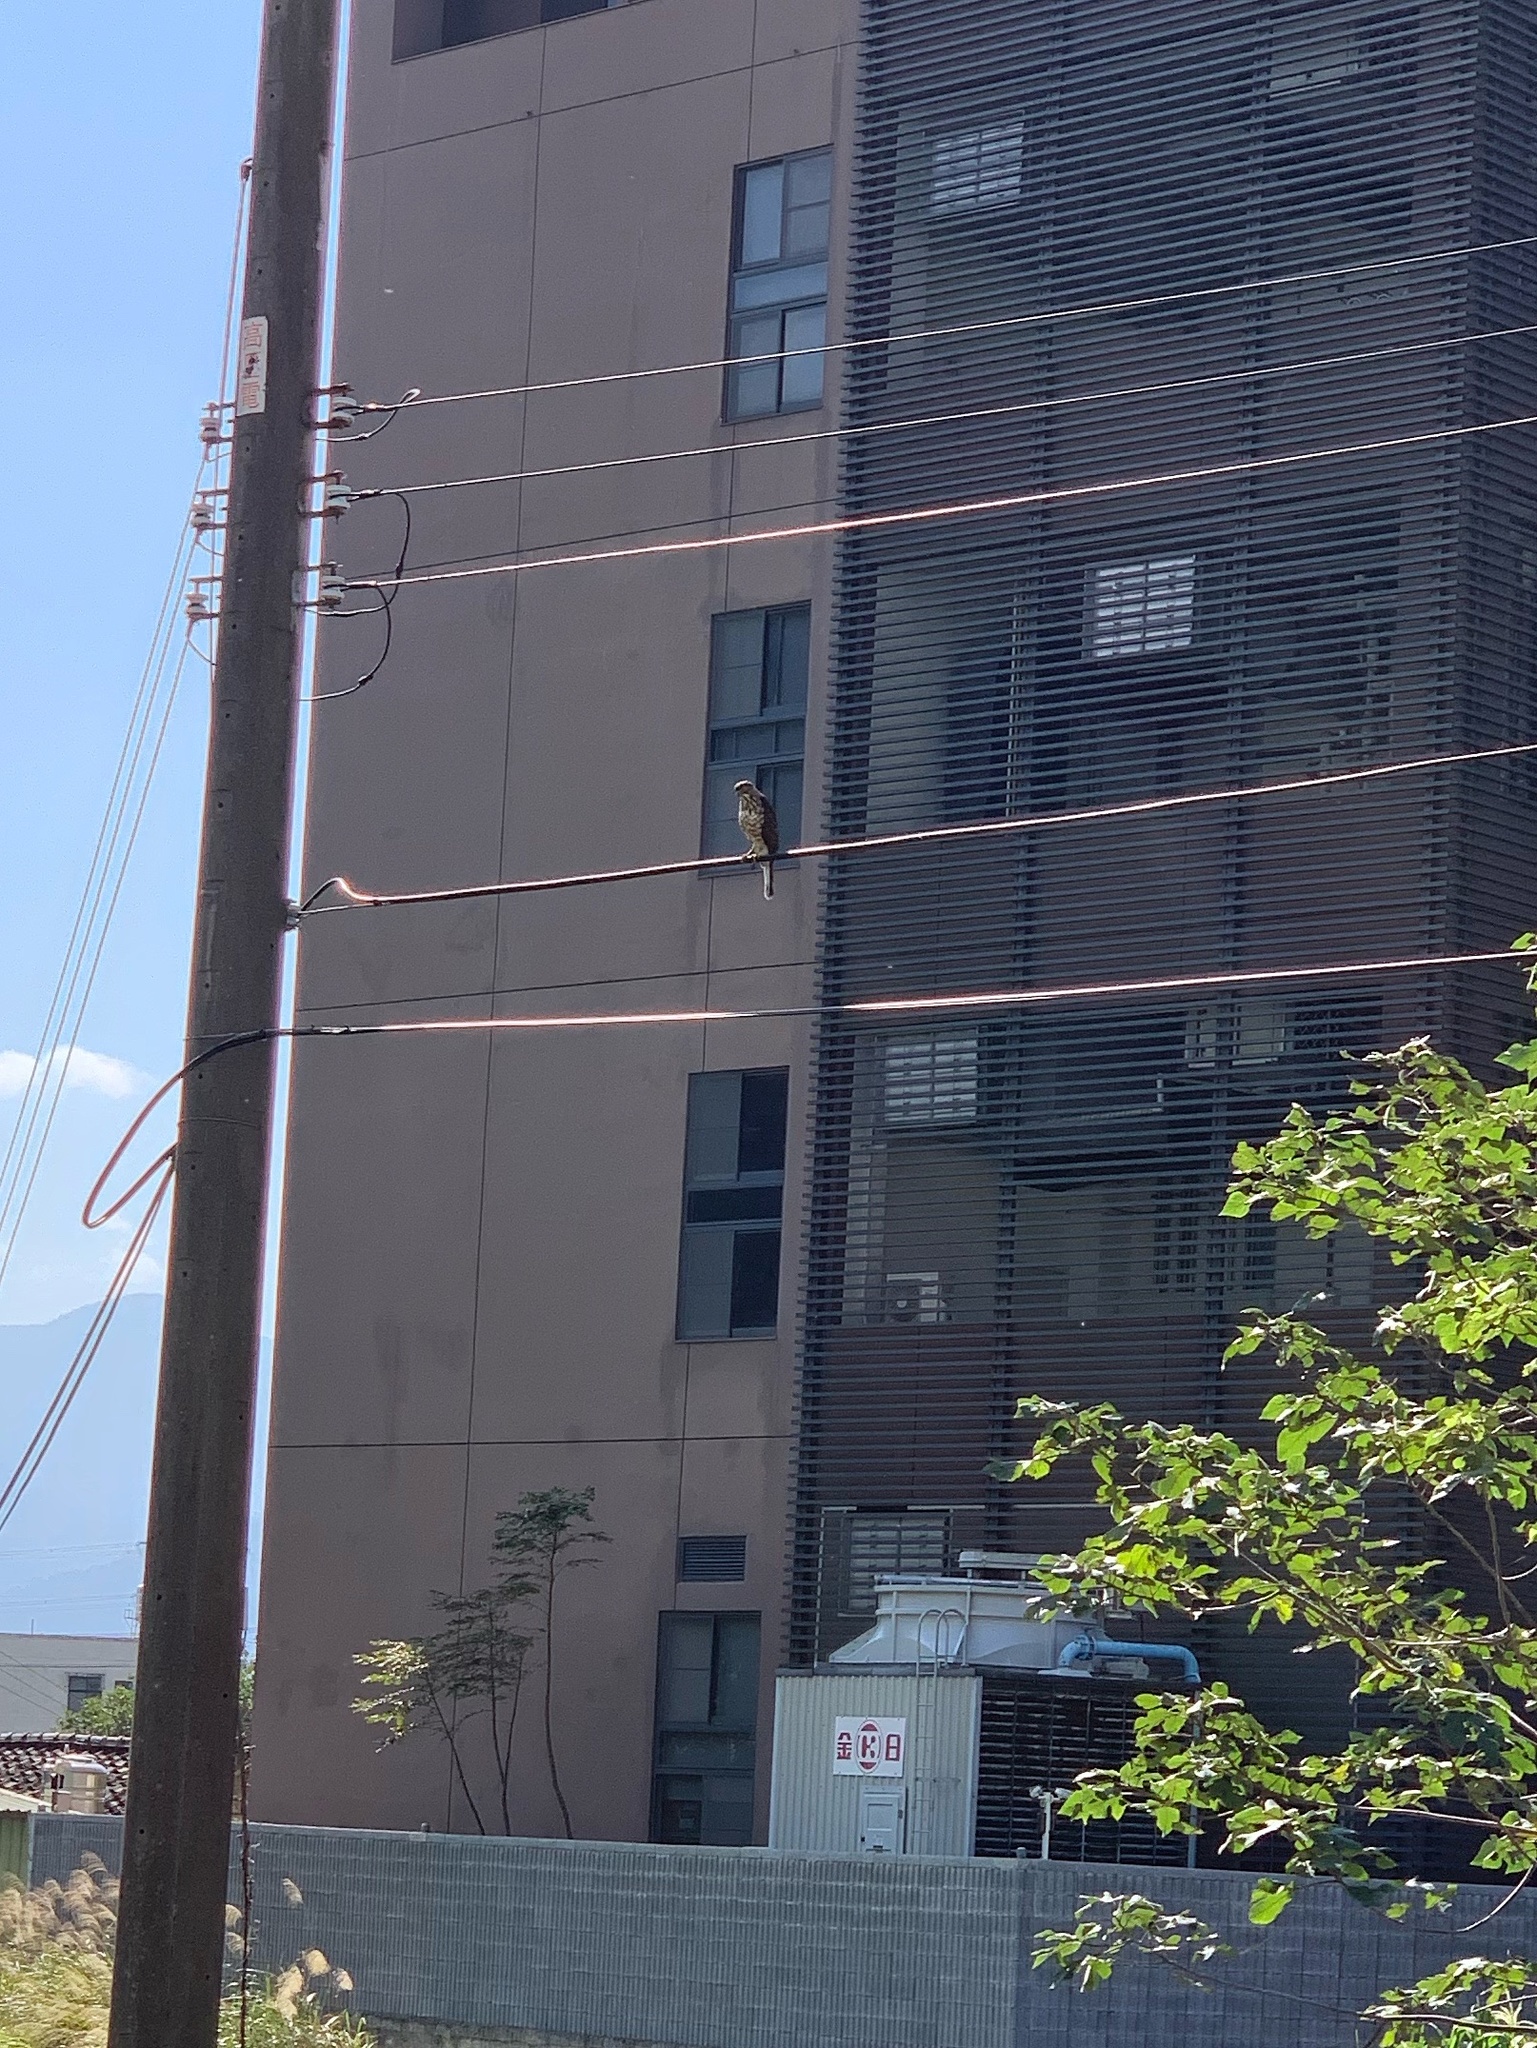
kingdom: Animalia
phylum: Chordata
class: Aves
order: Accipitriformes
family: Accipitridae
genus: Accipiter
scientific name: Accipiter trivirgatus
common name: Crested goshawk
